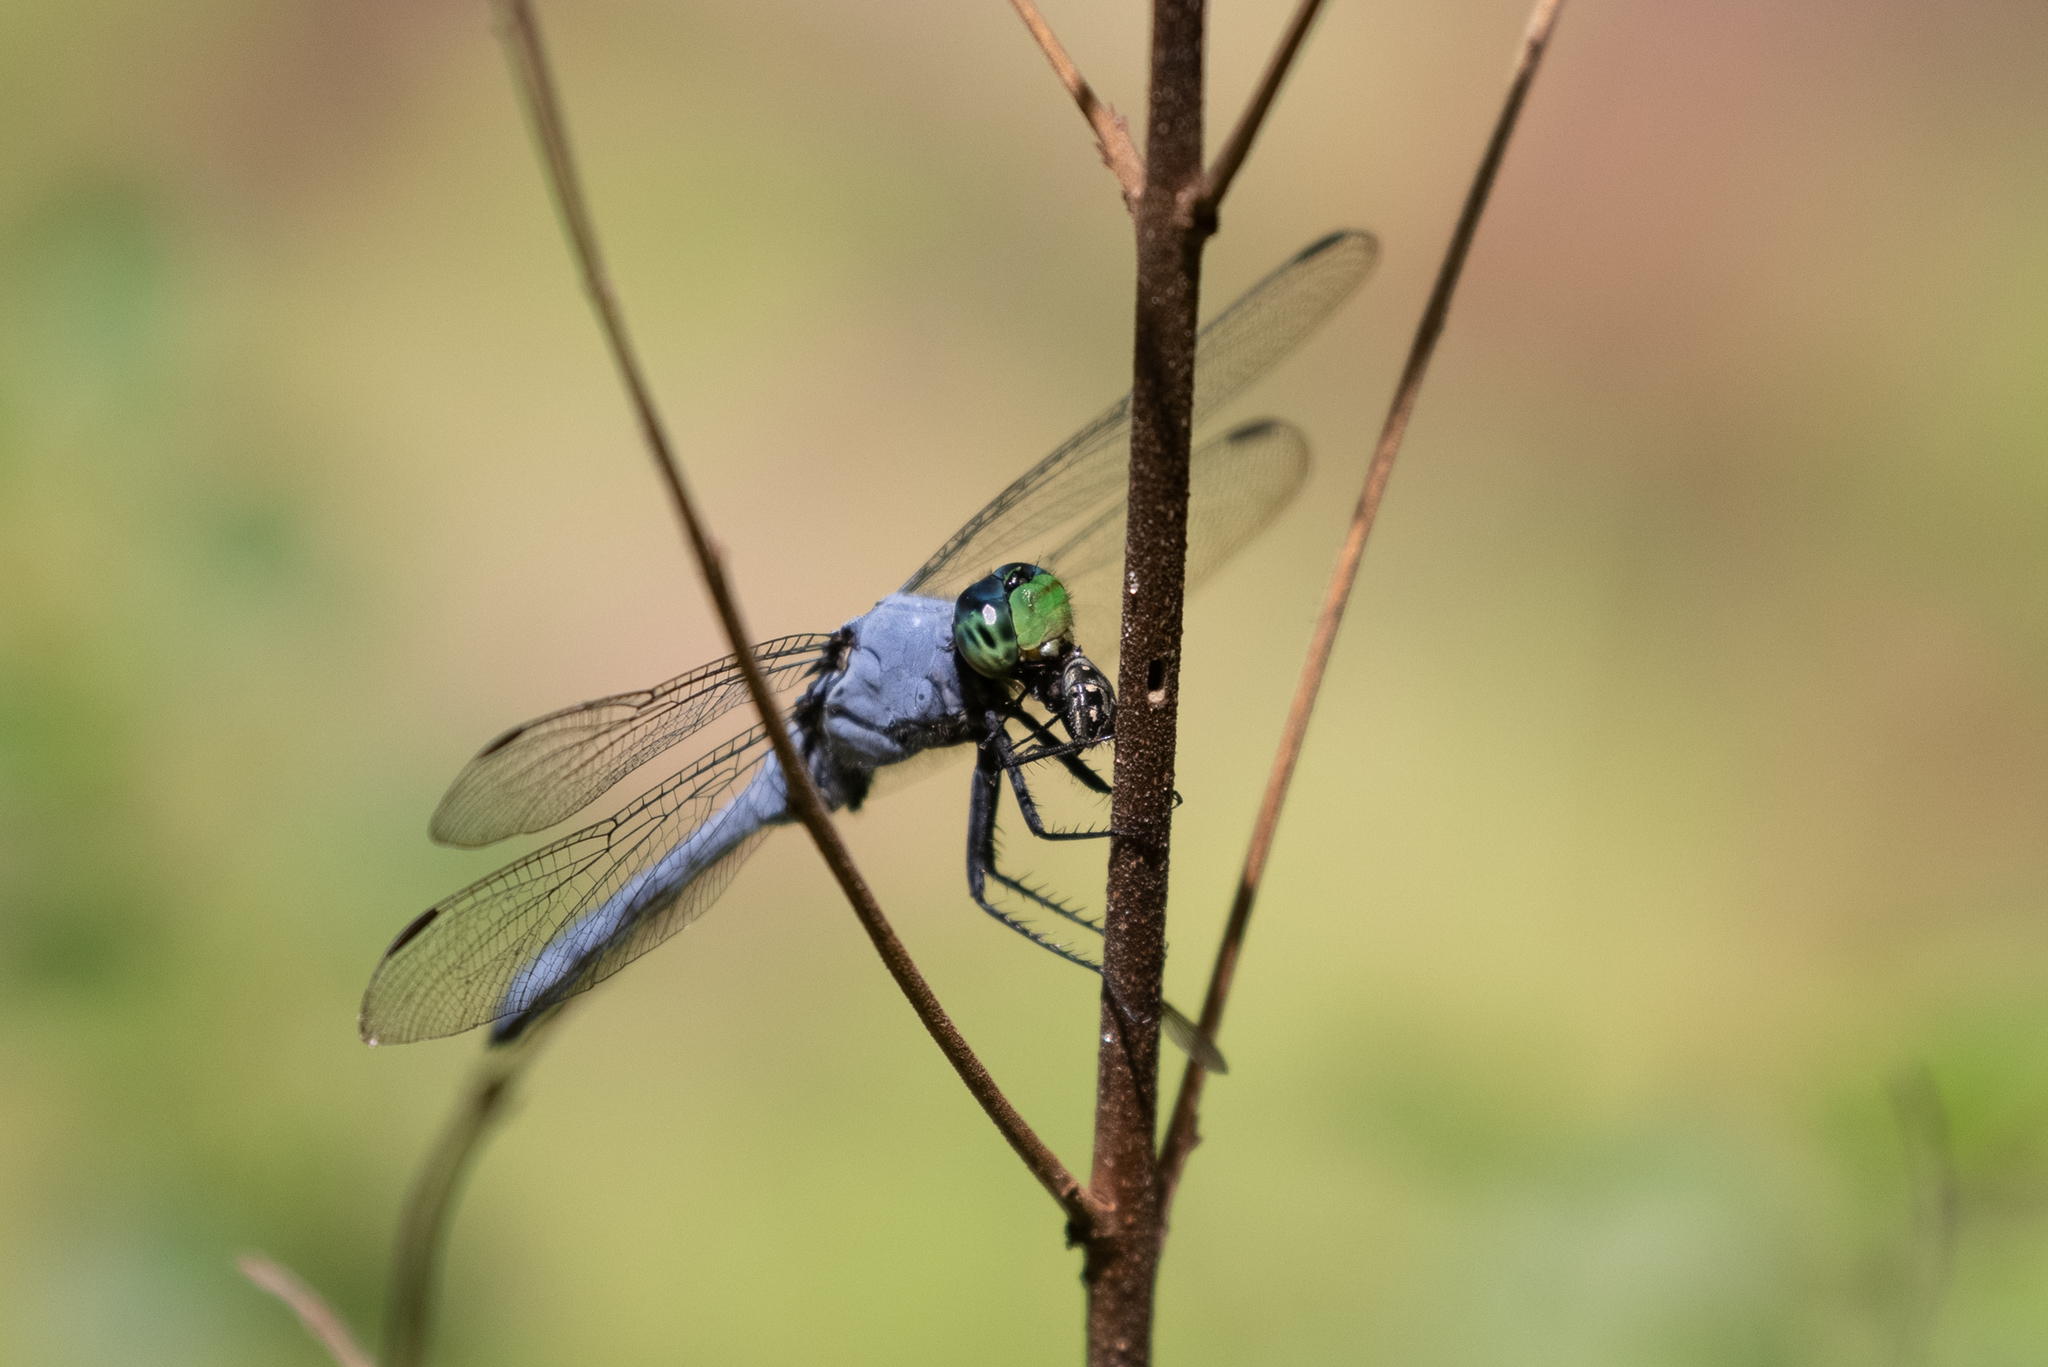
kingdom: Animalia
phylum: Arthropoda
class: Insecta
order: Odonata
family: Libellulidae
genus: Erythemis
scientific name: Erythemis simplicicollis
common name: Eastern pondhawk
